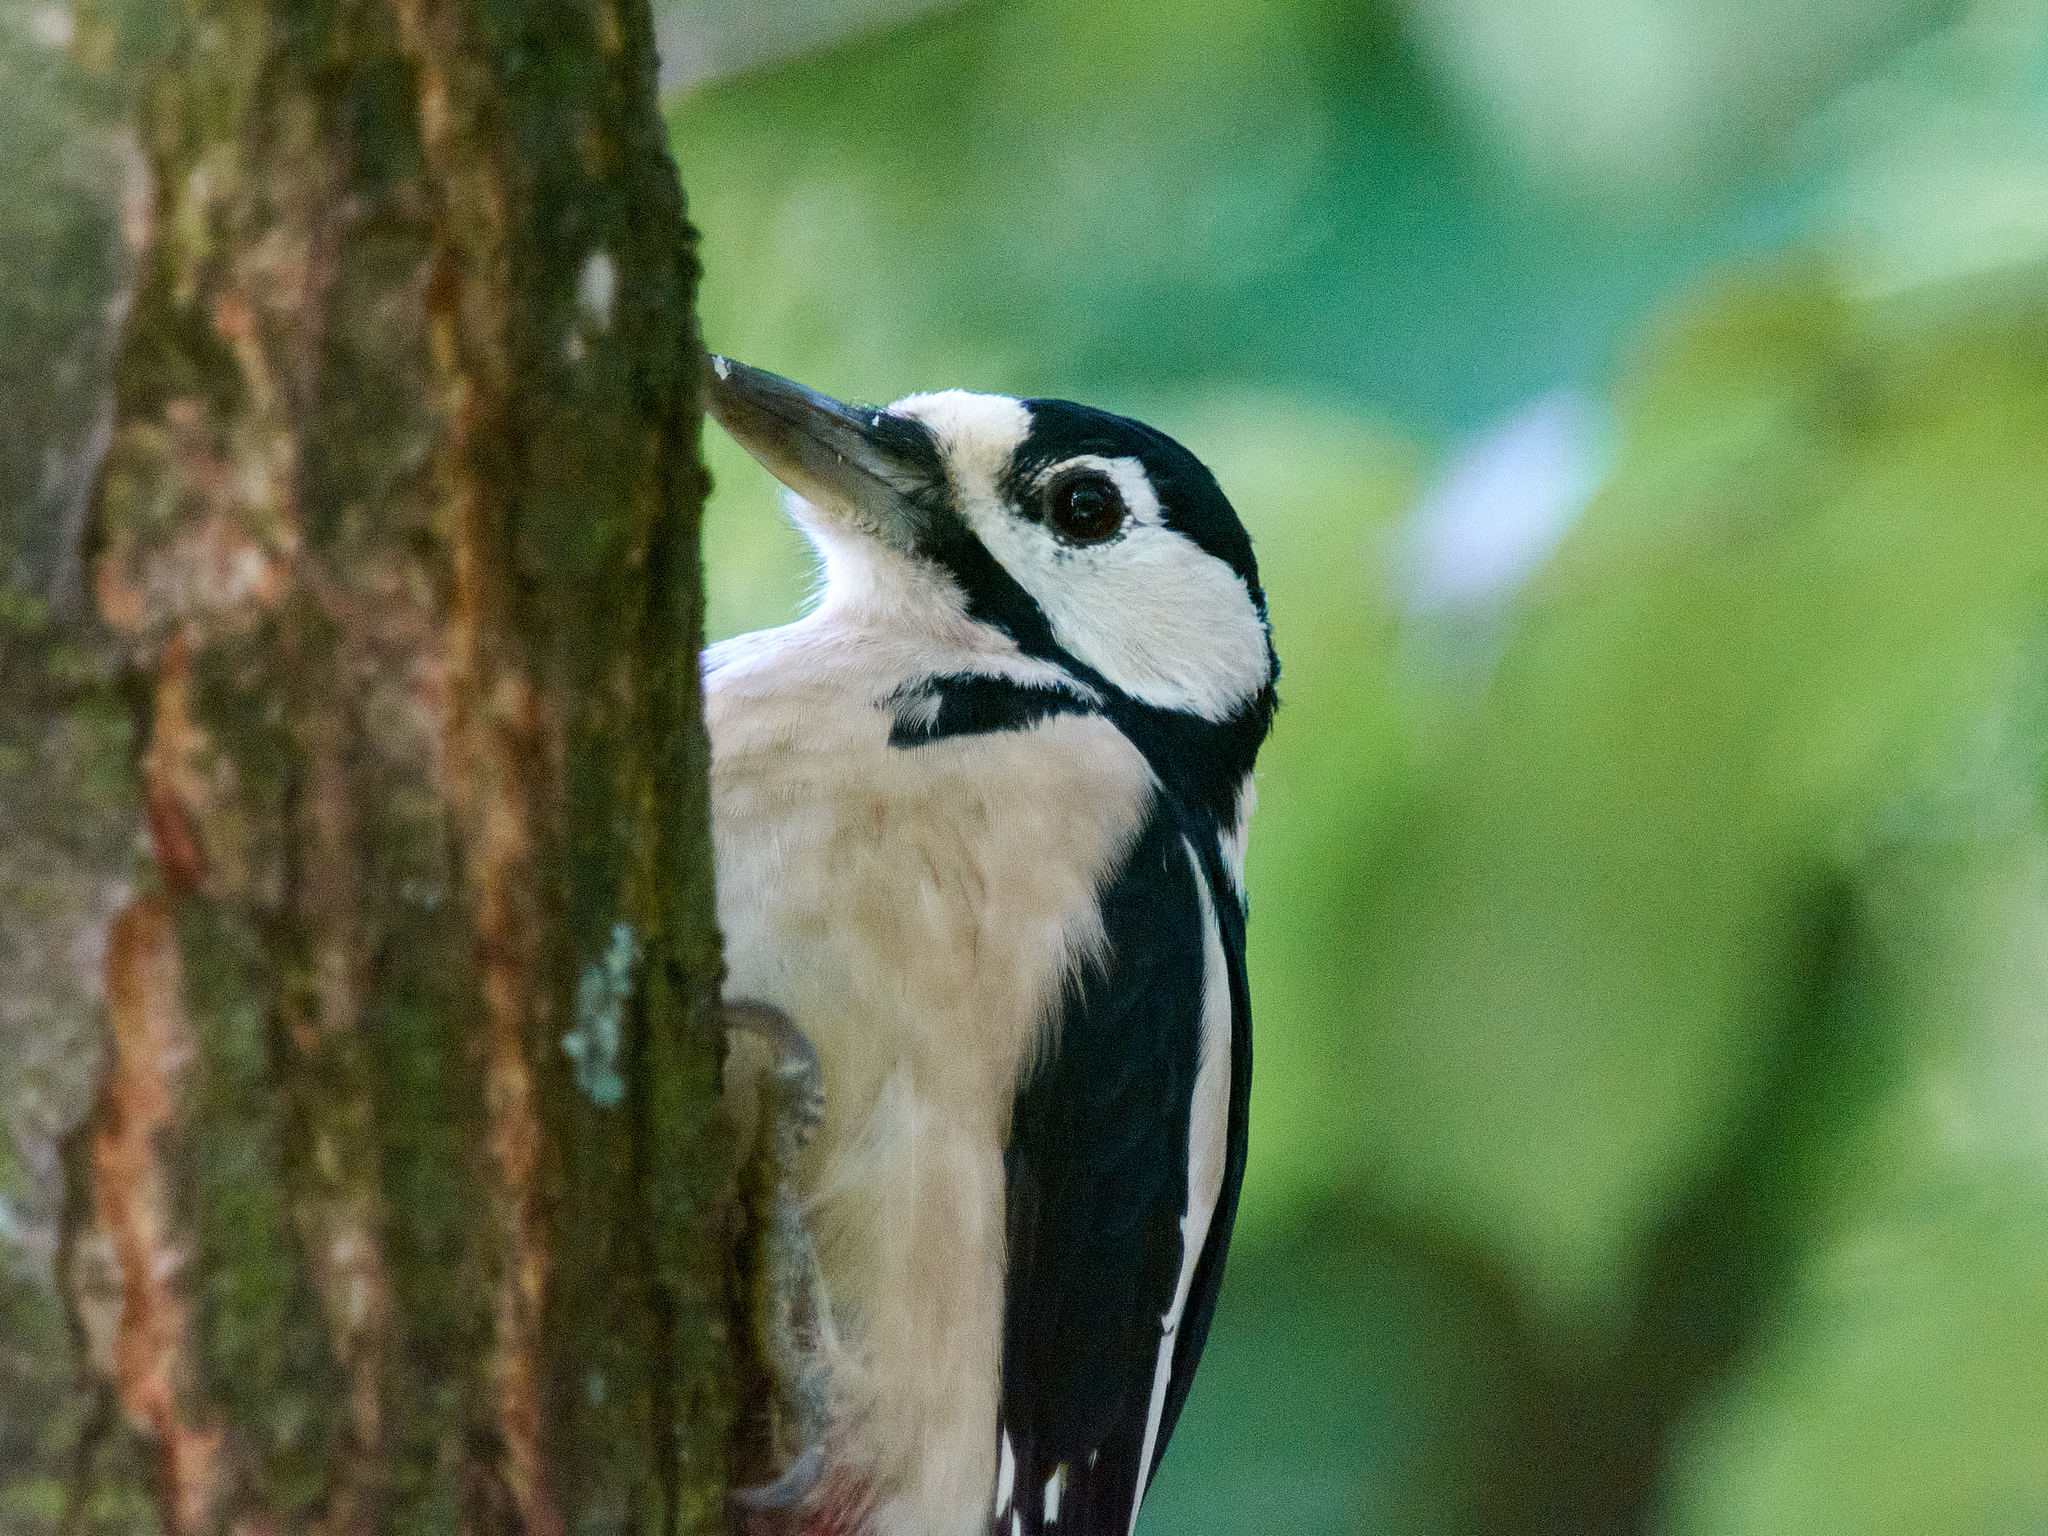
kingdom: Animalia
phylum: Chordata
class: Aves
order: Piciformes
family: Picidae
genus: Dendrocopos
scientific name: Dendrocopos major
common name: Great spotted woodpecker
